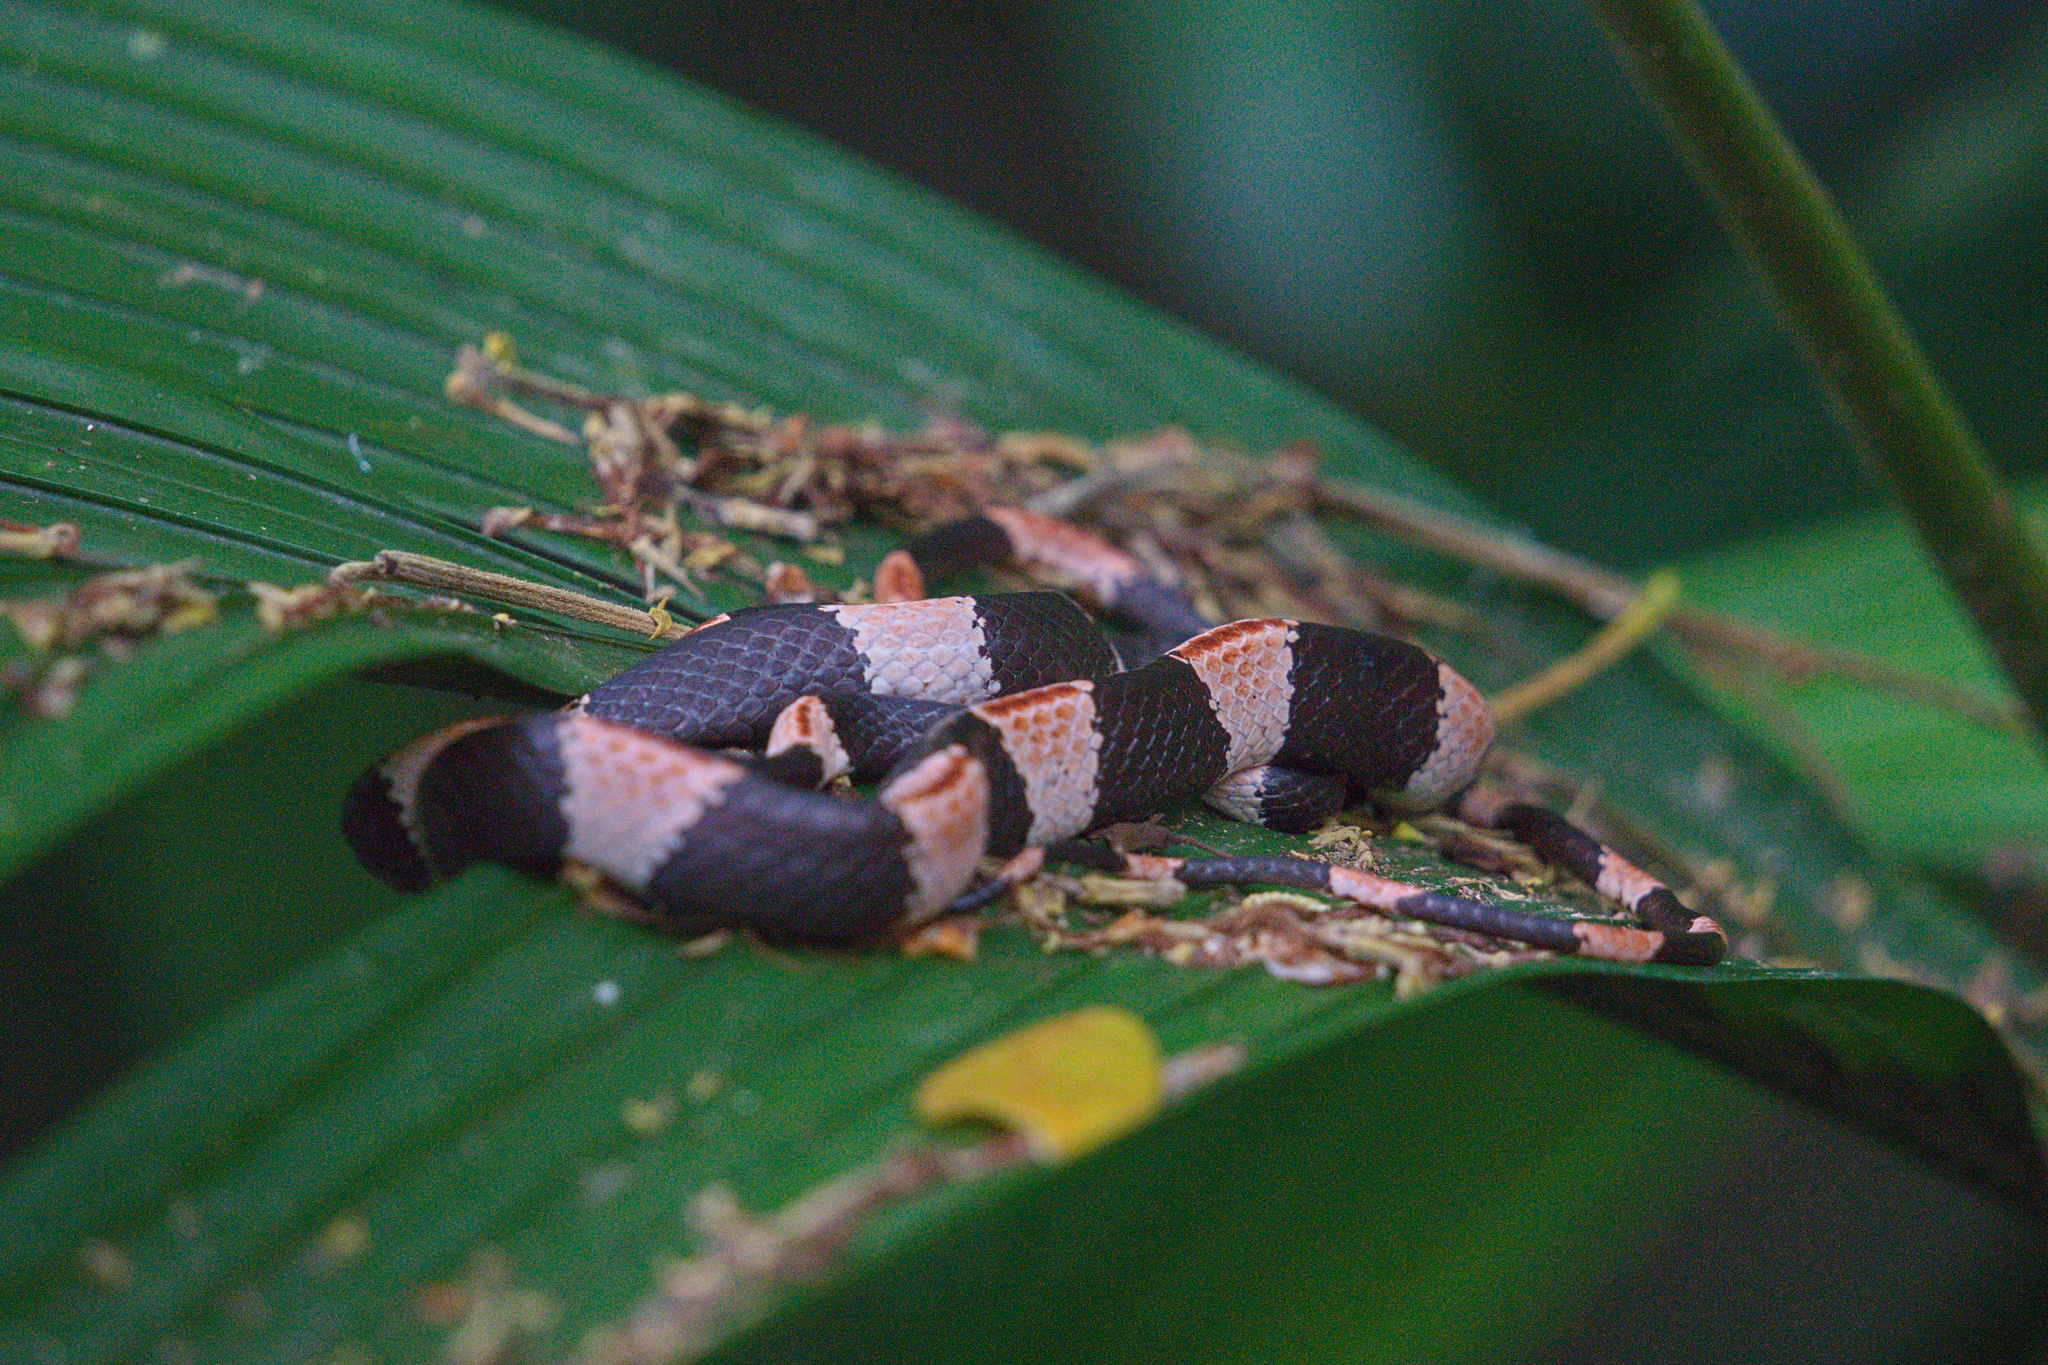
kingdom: Animalia
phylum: Chordata
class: Squamata
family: Colubridae
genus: Dipsas
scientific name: Dipsas bicolor
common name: Two-colored snail-eater
